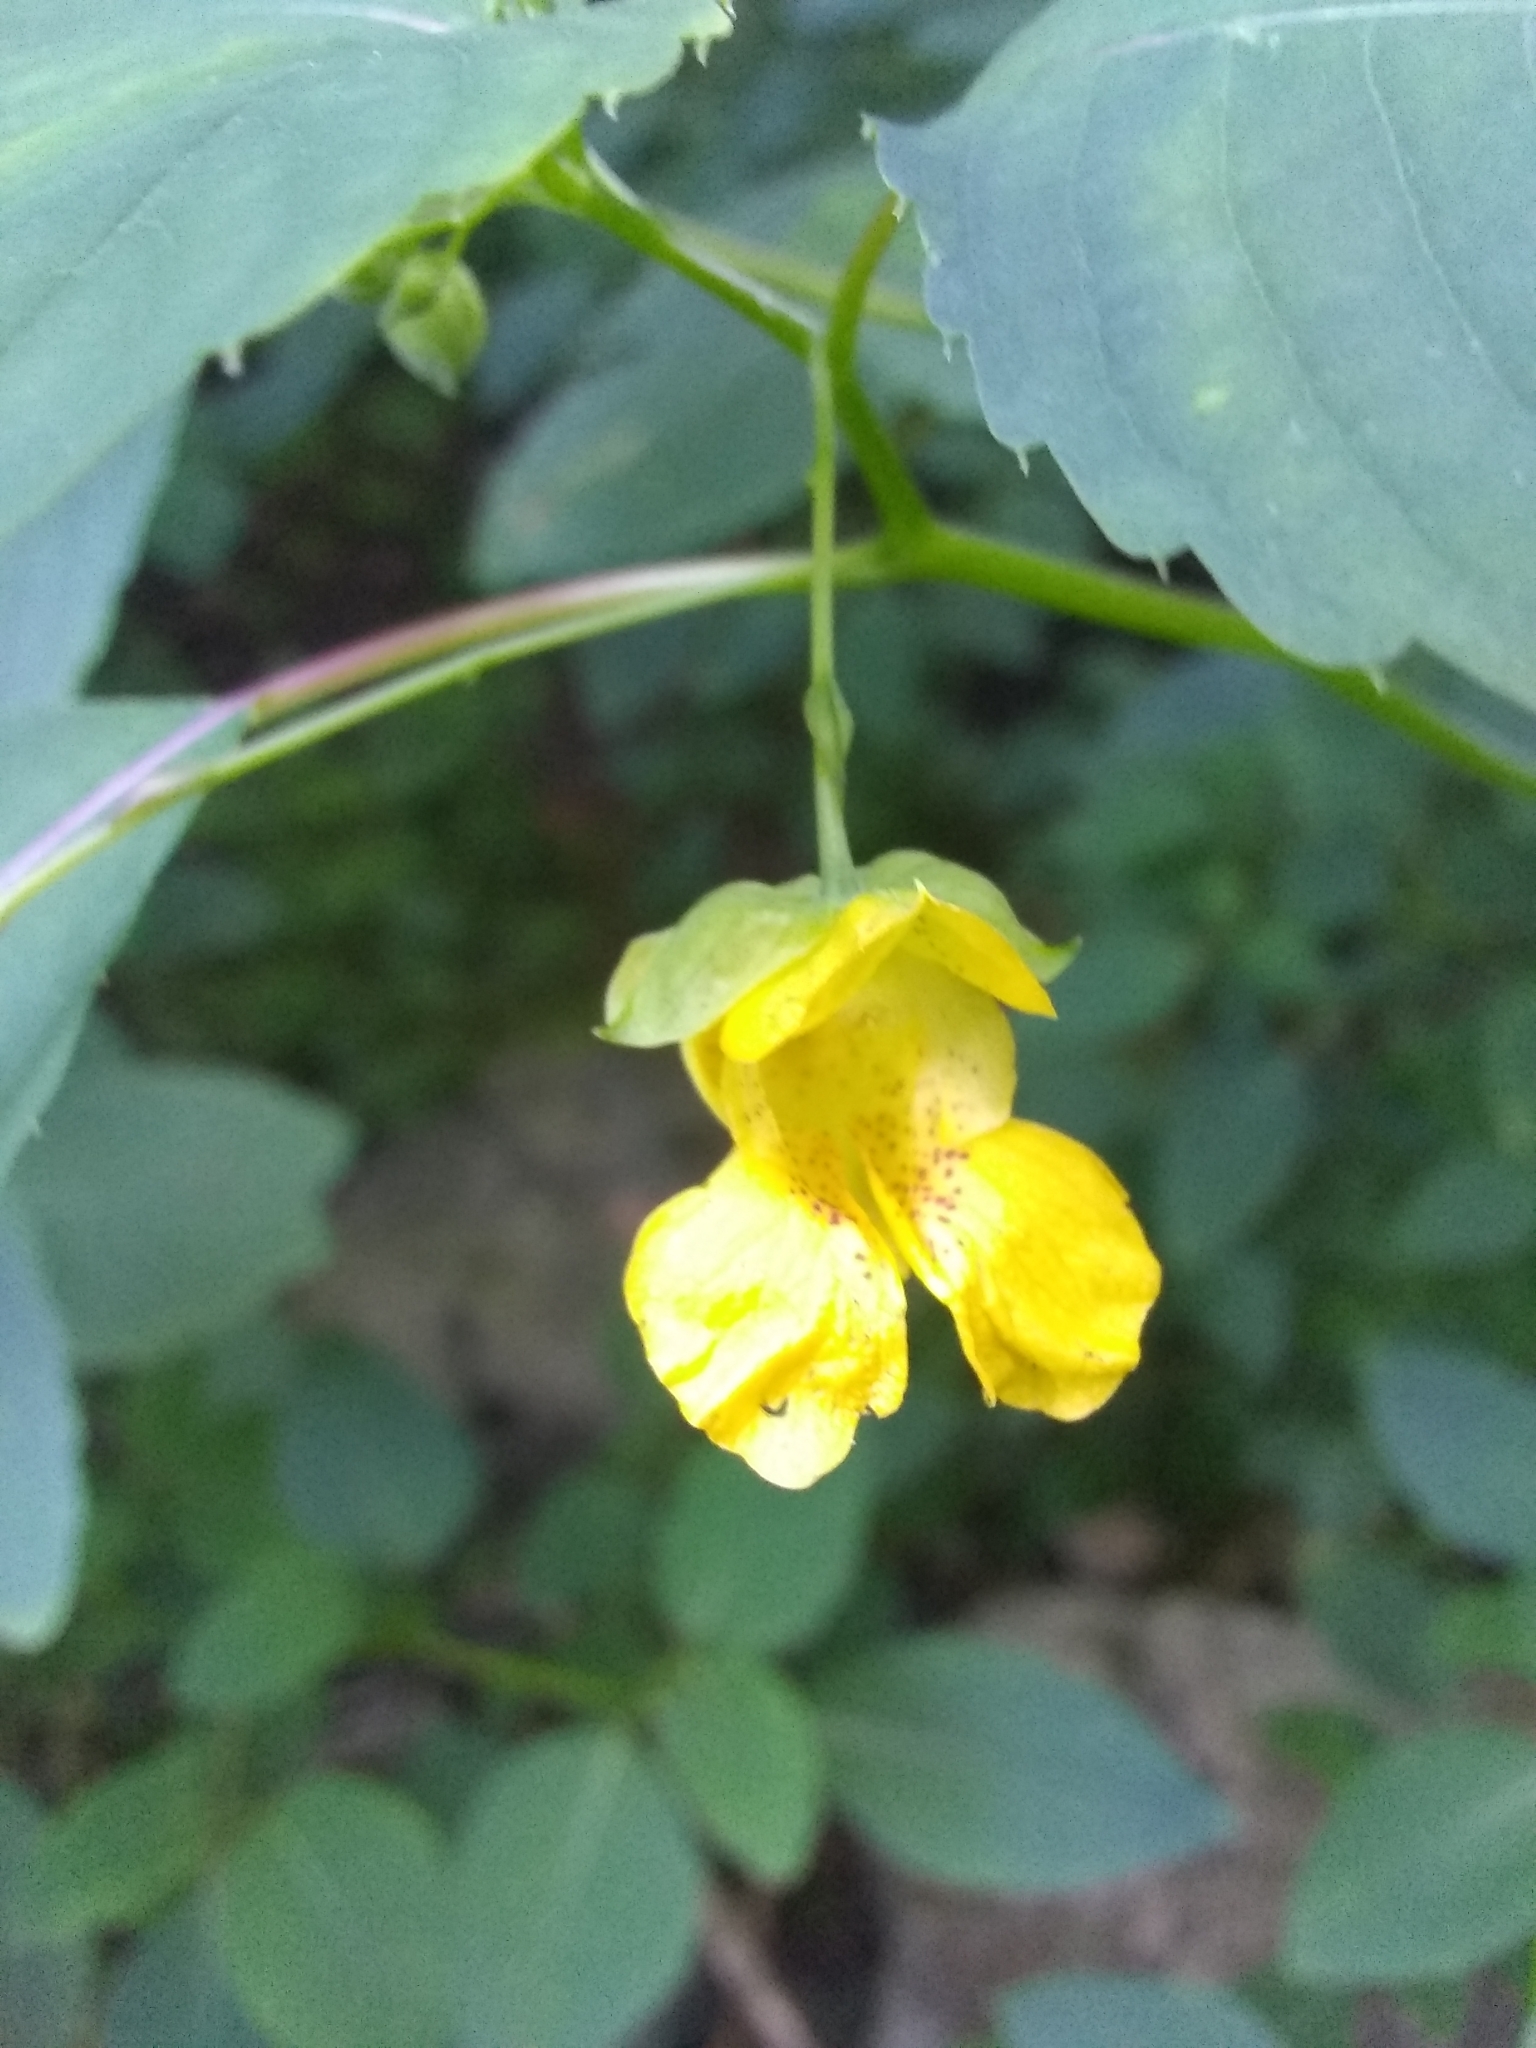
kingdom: Plantae
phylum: Tracheophyta
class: Magnoliopsida
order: Ericales
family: Balsaminaceae
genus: Impatiens
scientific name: Impatiens pallida
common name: Pale snapweed
